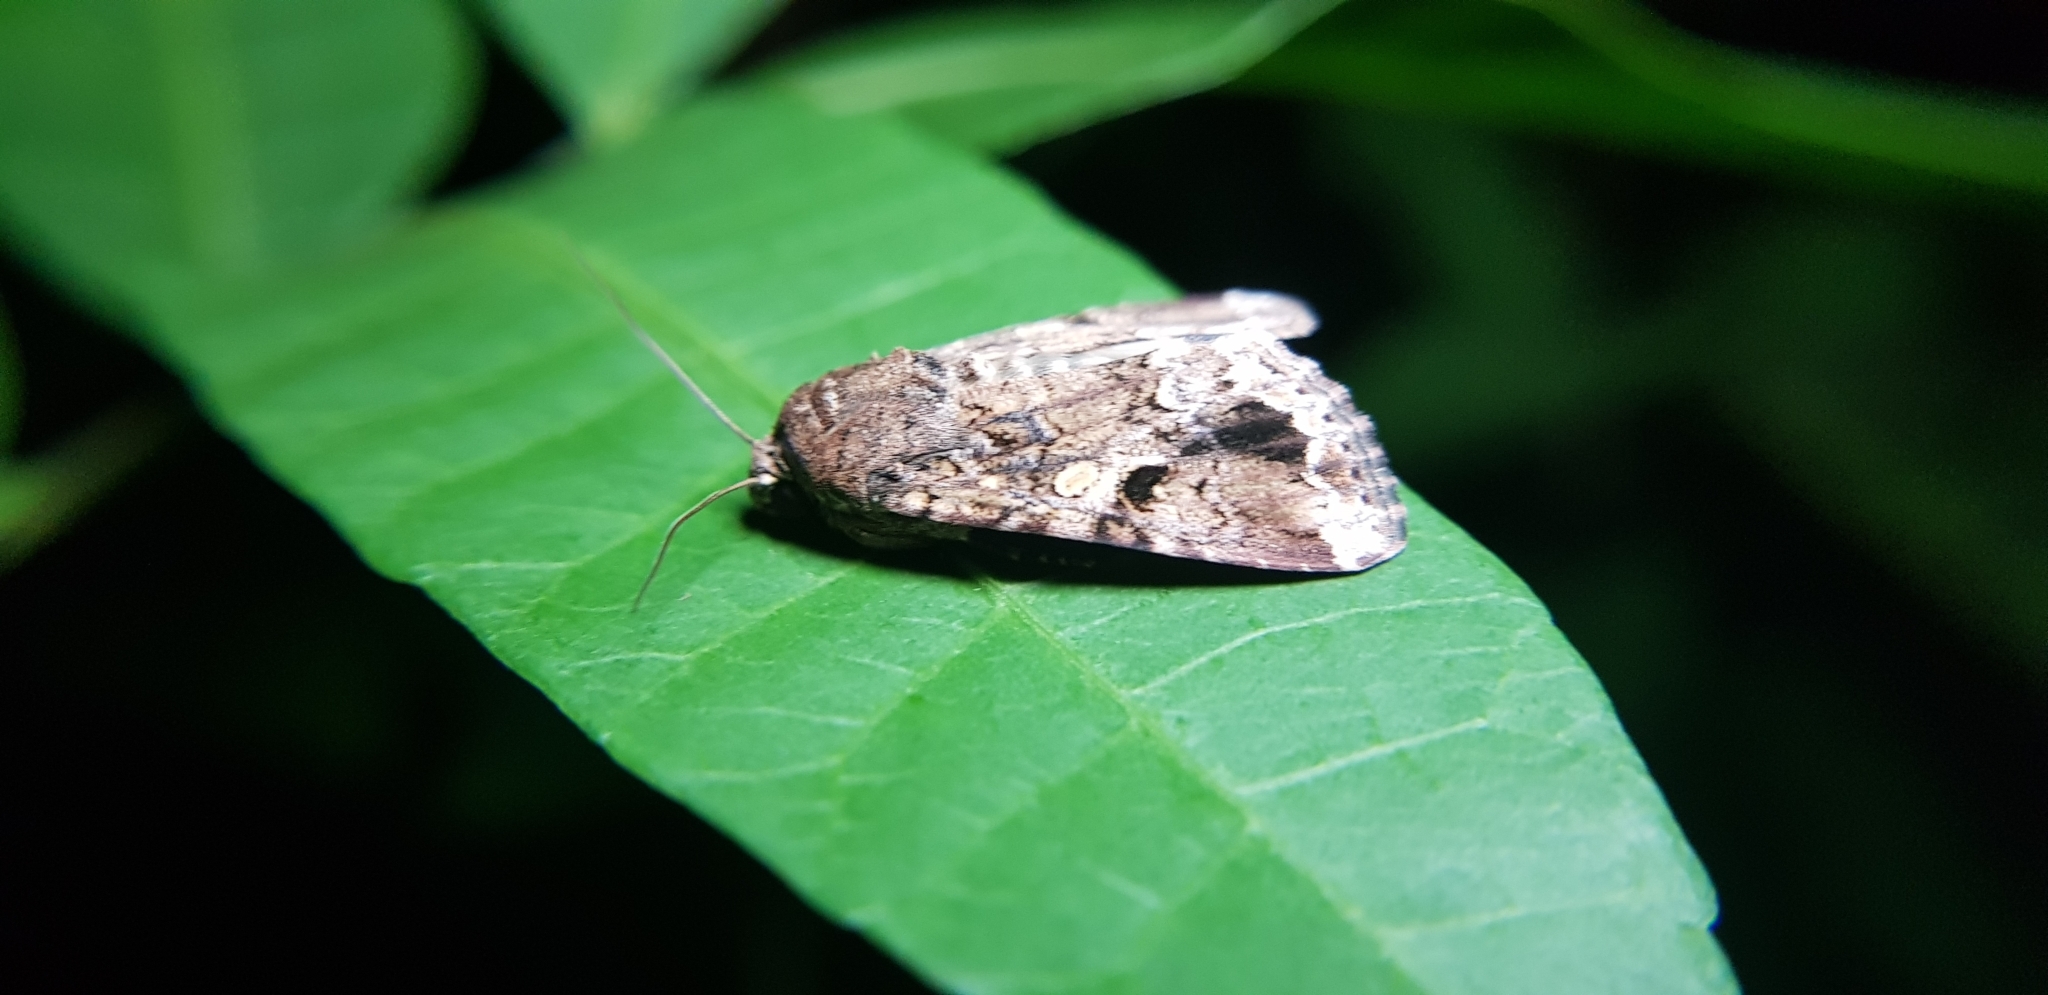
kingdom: Animalia
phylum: Arthropoda
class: Insecta
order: Lepidoptera
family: Noctuidae
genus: Spodoptera
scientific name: Spodoptera mauritia
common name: Lawn armyworm
